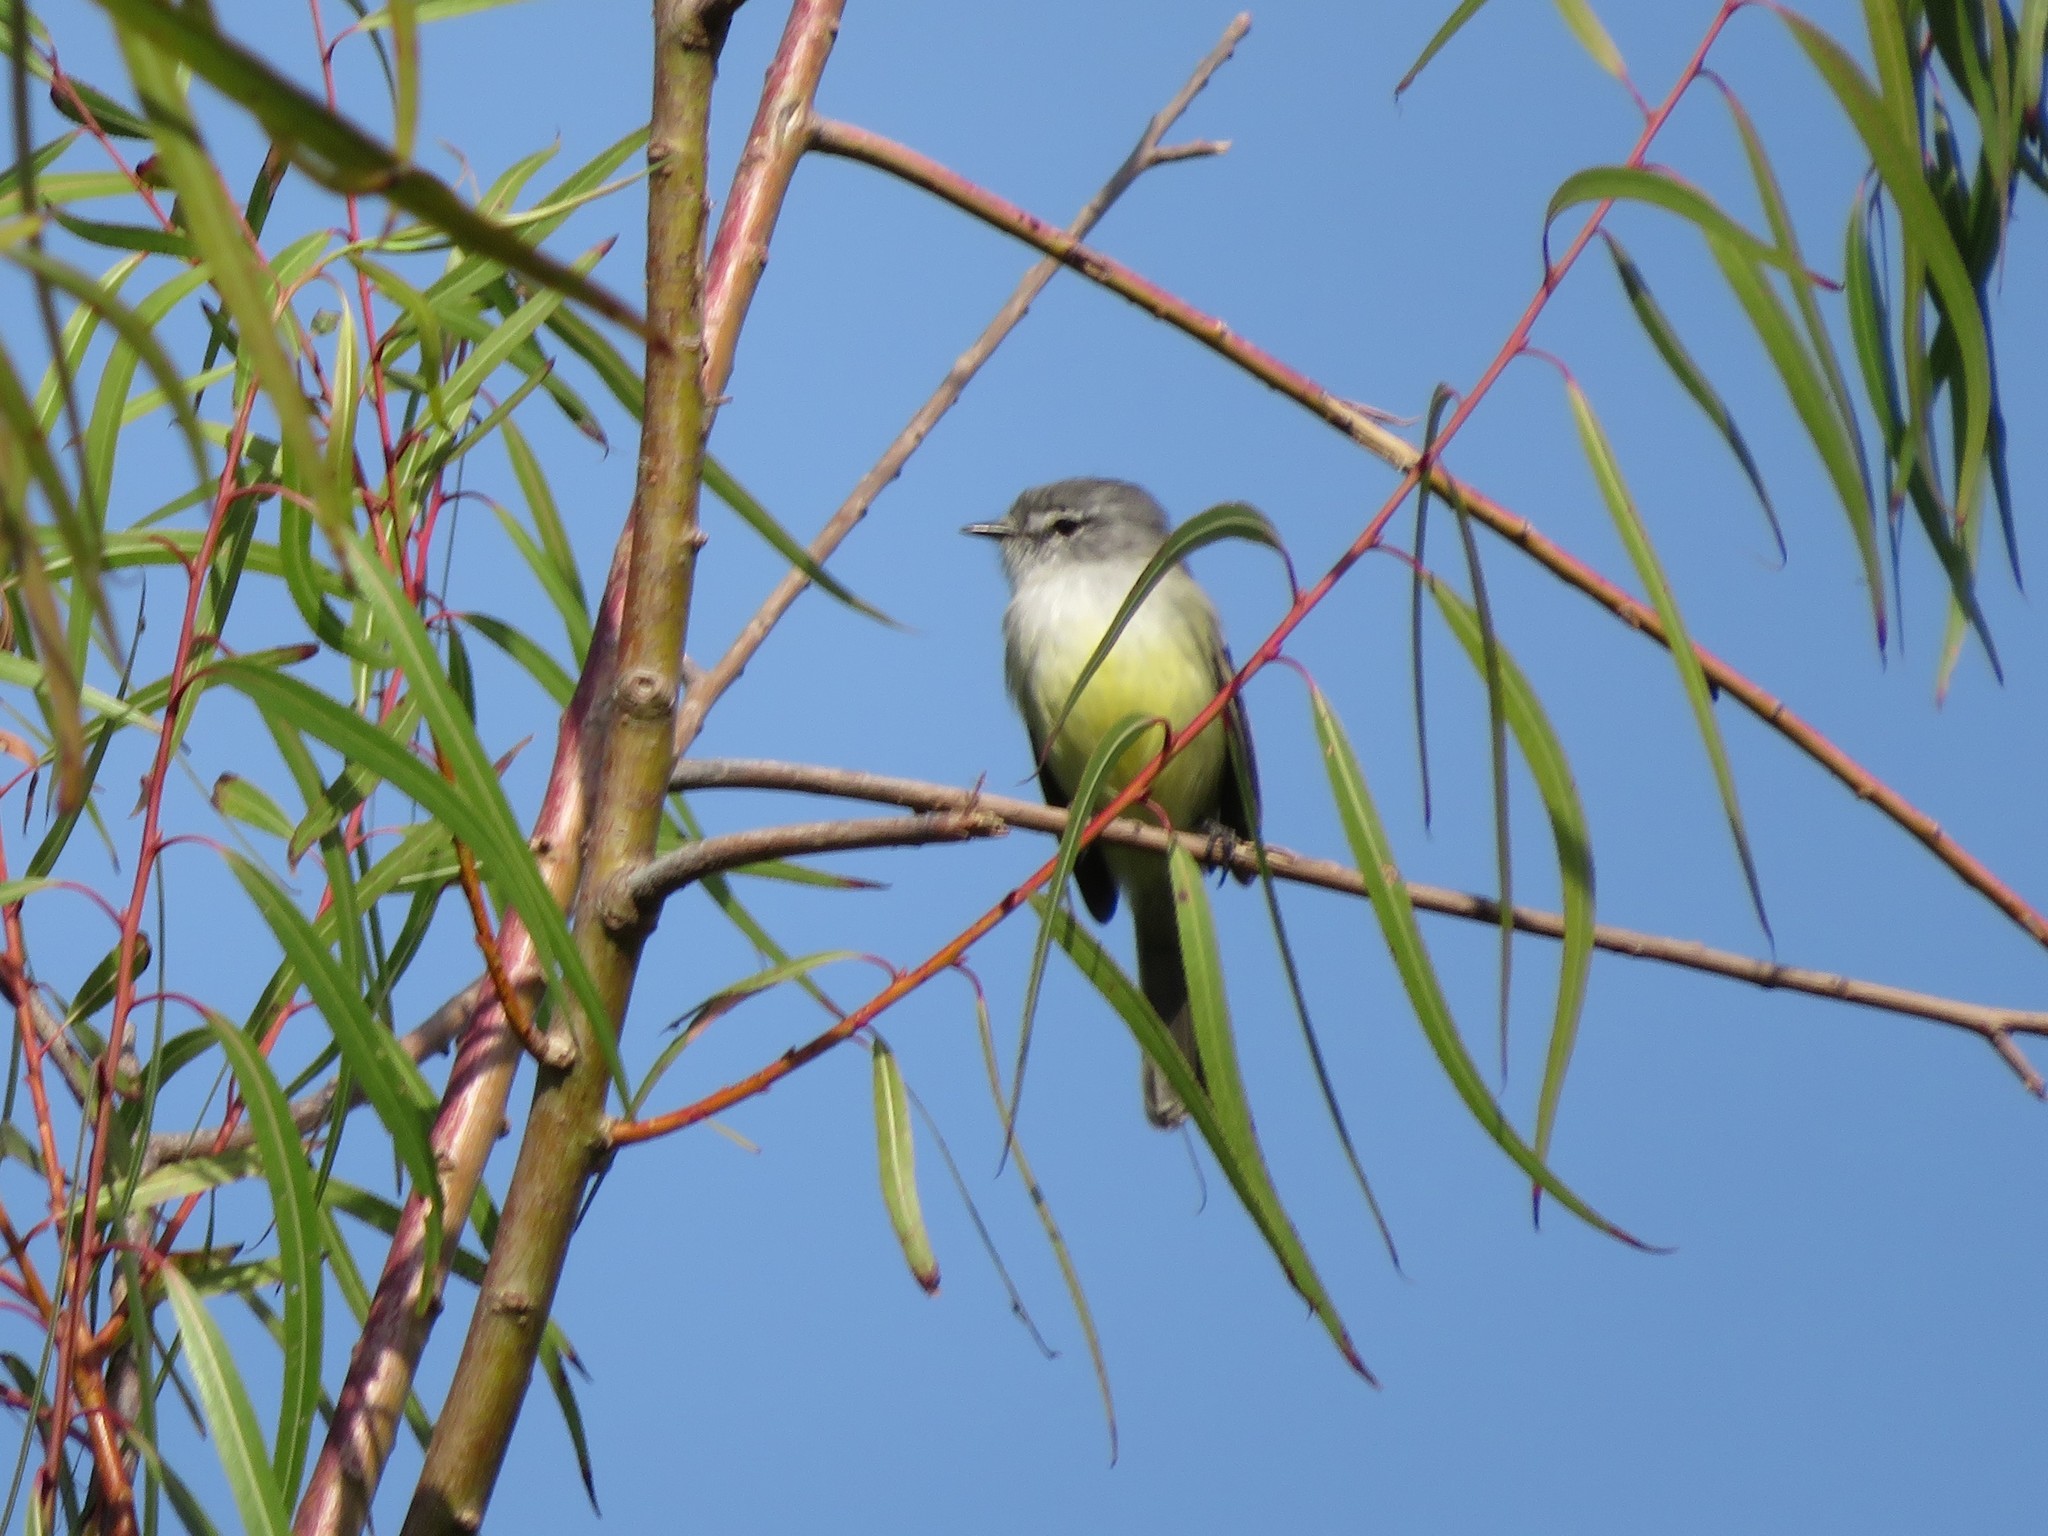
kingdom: Animalia
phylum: Chordata
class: Aves
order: Passeriformes
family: Tyrannidae
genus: Serpophaga
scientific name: Serpophaga subcristata
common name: White-crested tyrannulet
